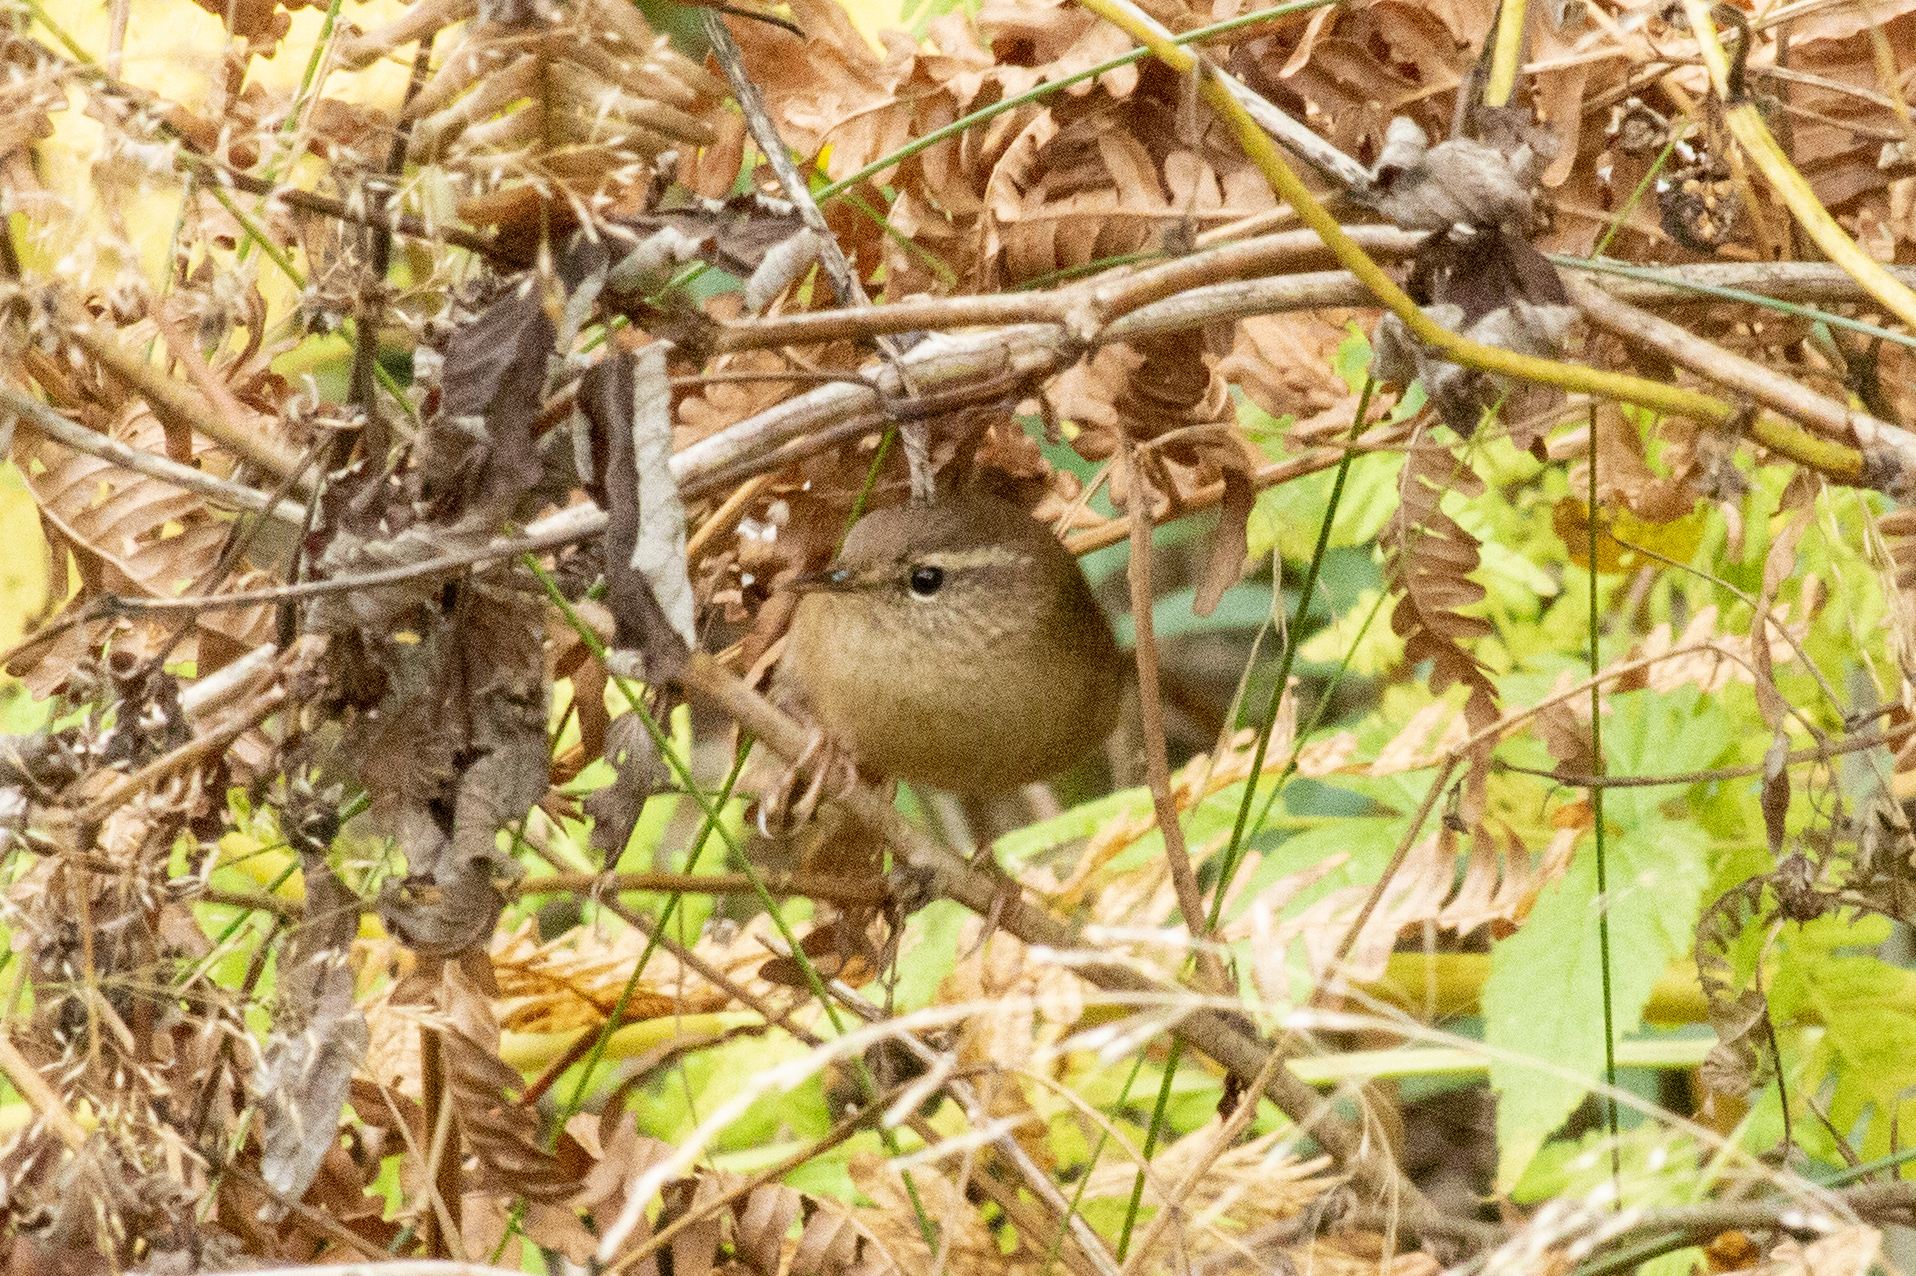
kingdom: Animalia
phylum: Chordata
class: Aves
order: Passeriformes
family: Troglodytidae
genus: Troglodytes
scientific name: Troglodytes troglodytes
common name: Eurasian wren
